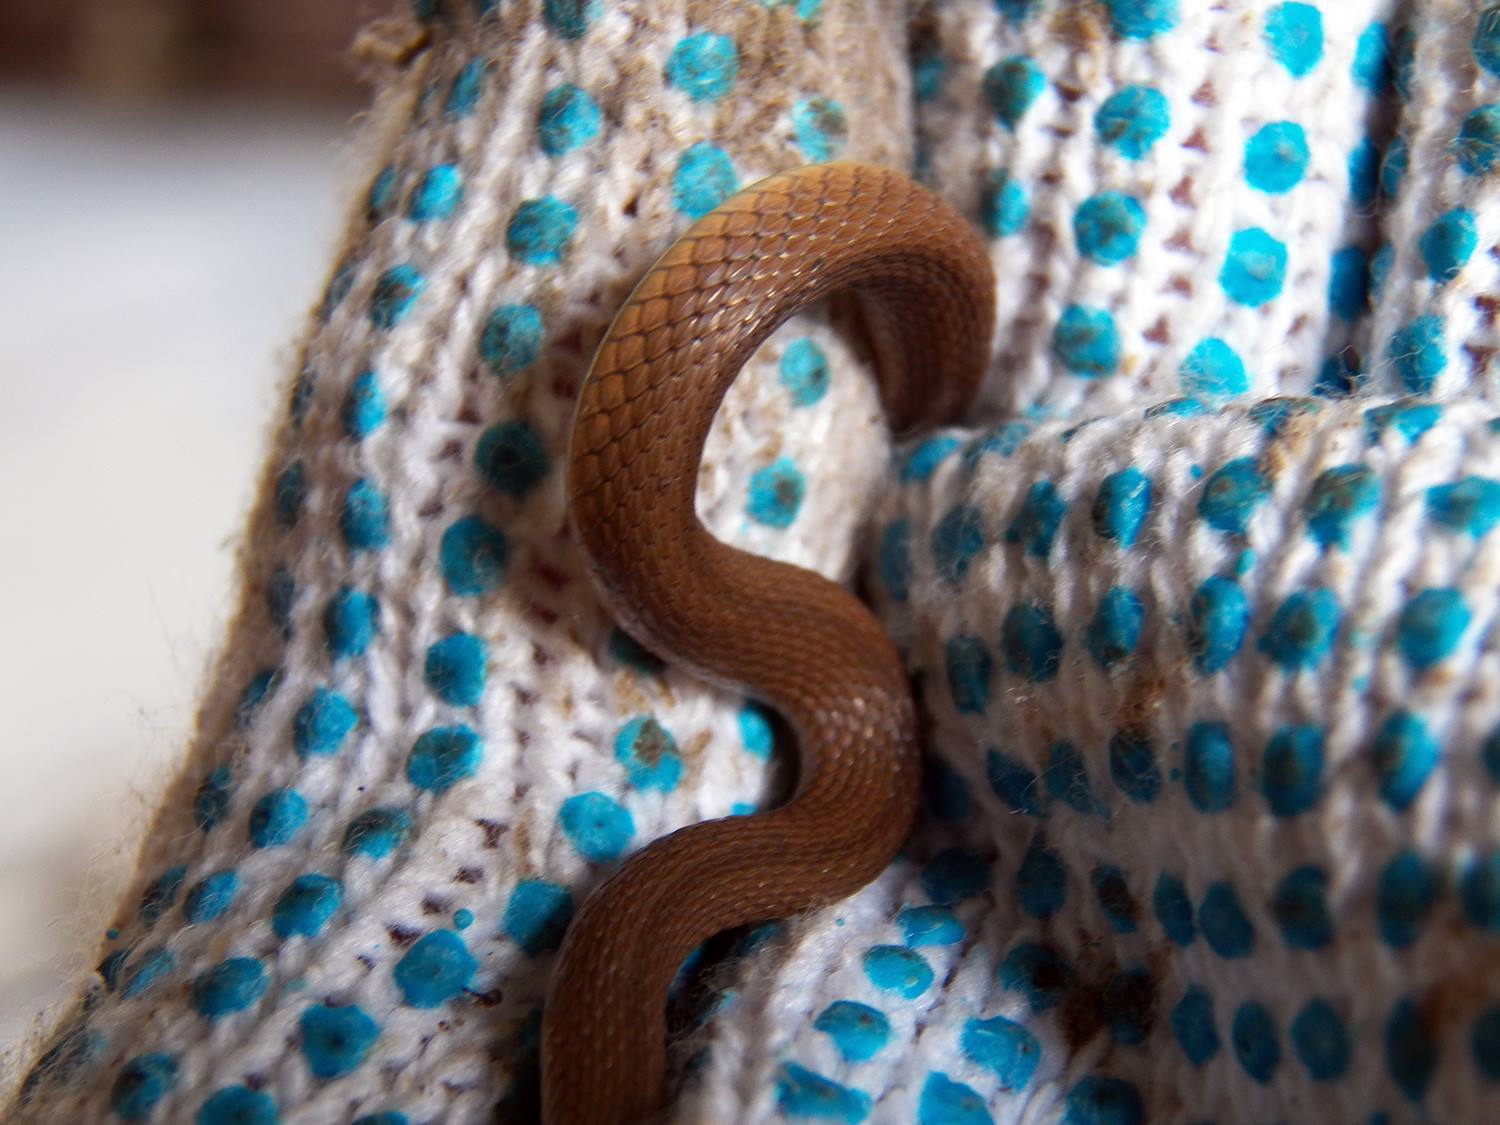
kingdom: Animalia
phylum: Chordata
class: Squamata
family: Colubridae
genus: Haldea
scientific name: Haldea striatula
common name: Rough earth snake
